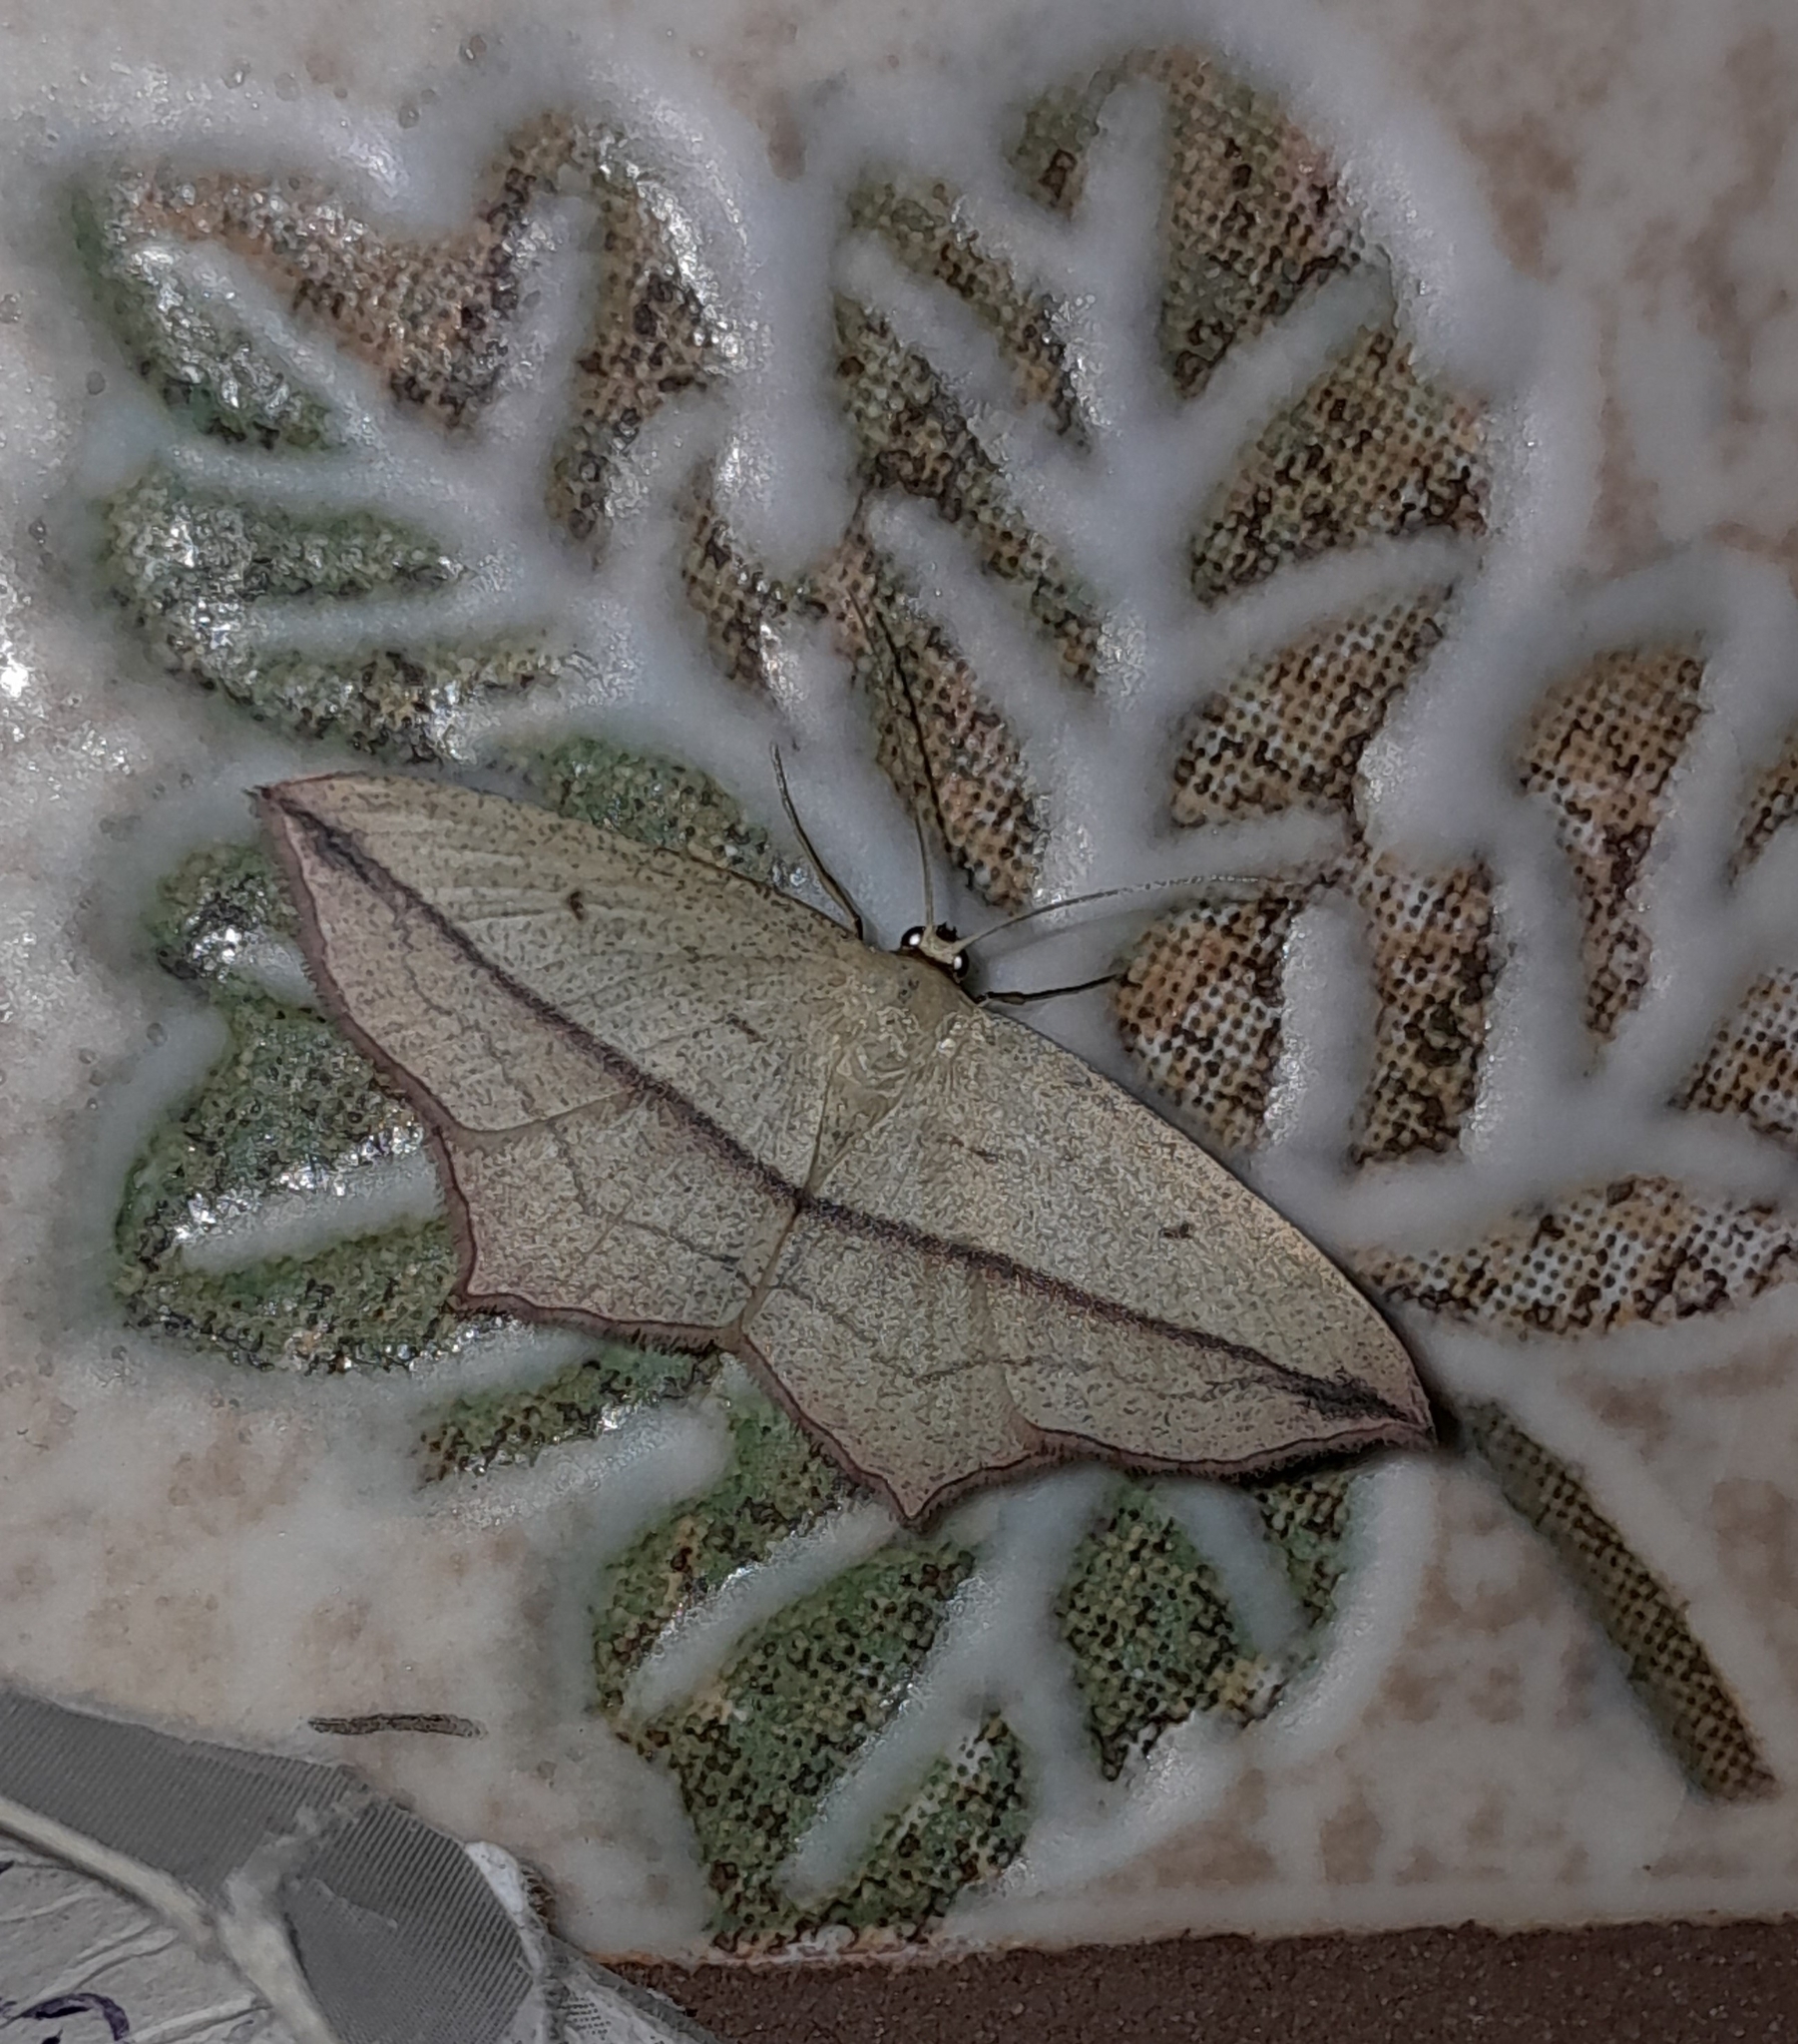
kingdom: Animalia
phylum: Arthropoda
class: Insecta
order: Lepidoptera
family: Geometridae
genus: Timandra
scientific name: Timandra comae
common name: Blood-vein
